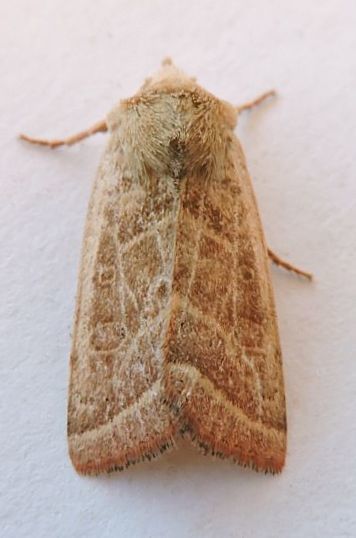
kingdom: Animalia
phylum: Arthropoda
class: Insecta
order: Lepidoptera
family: Noctuidae
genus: Eriopyga
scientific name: Eriopyga trifascia
